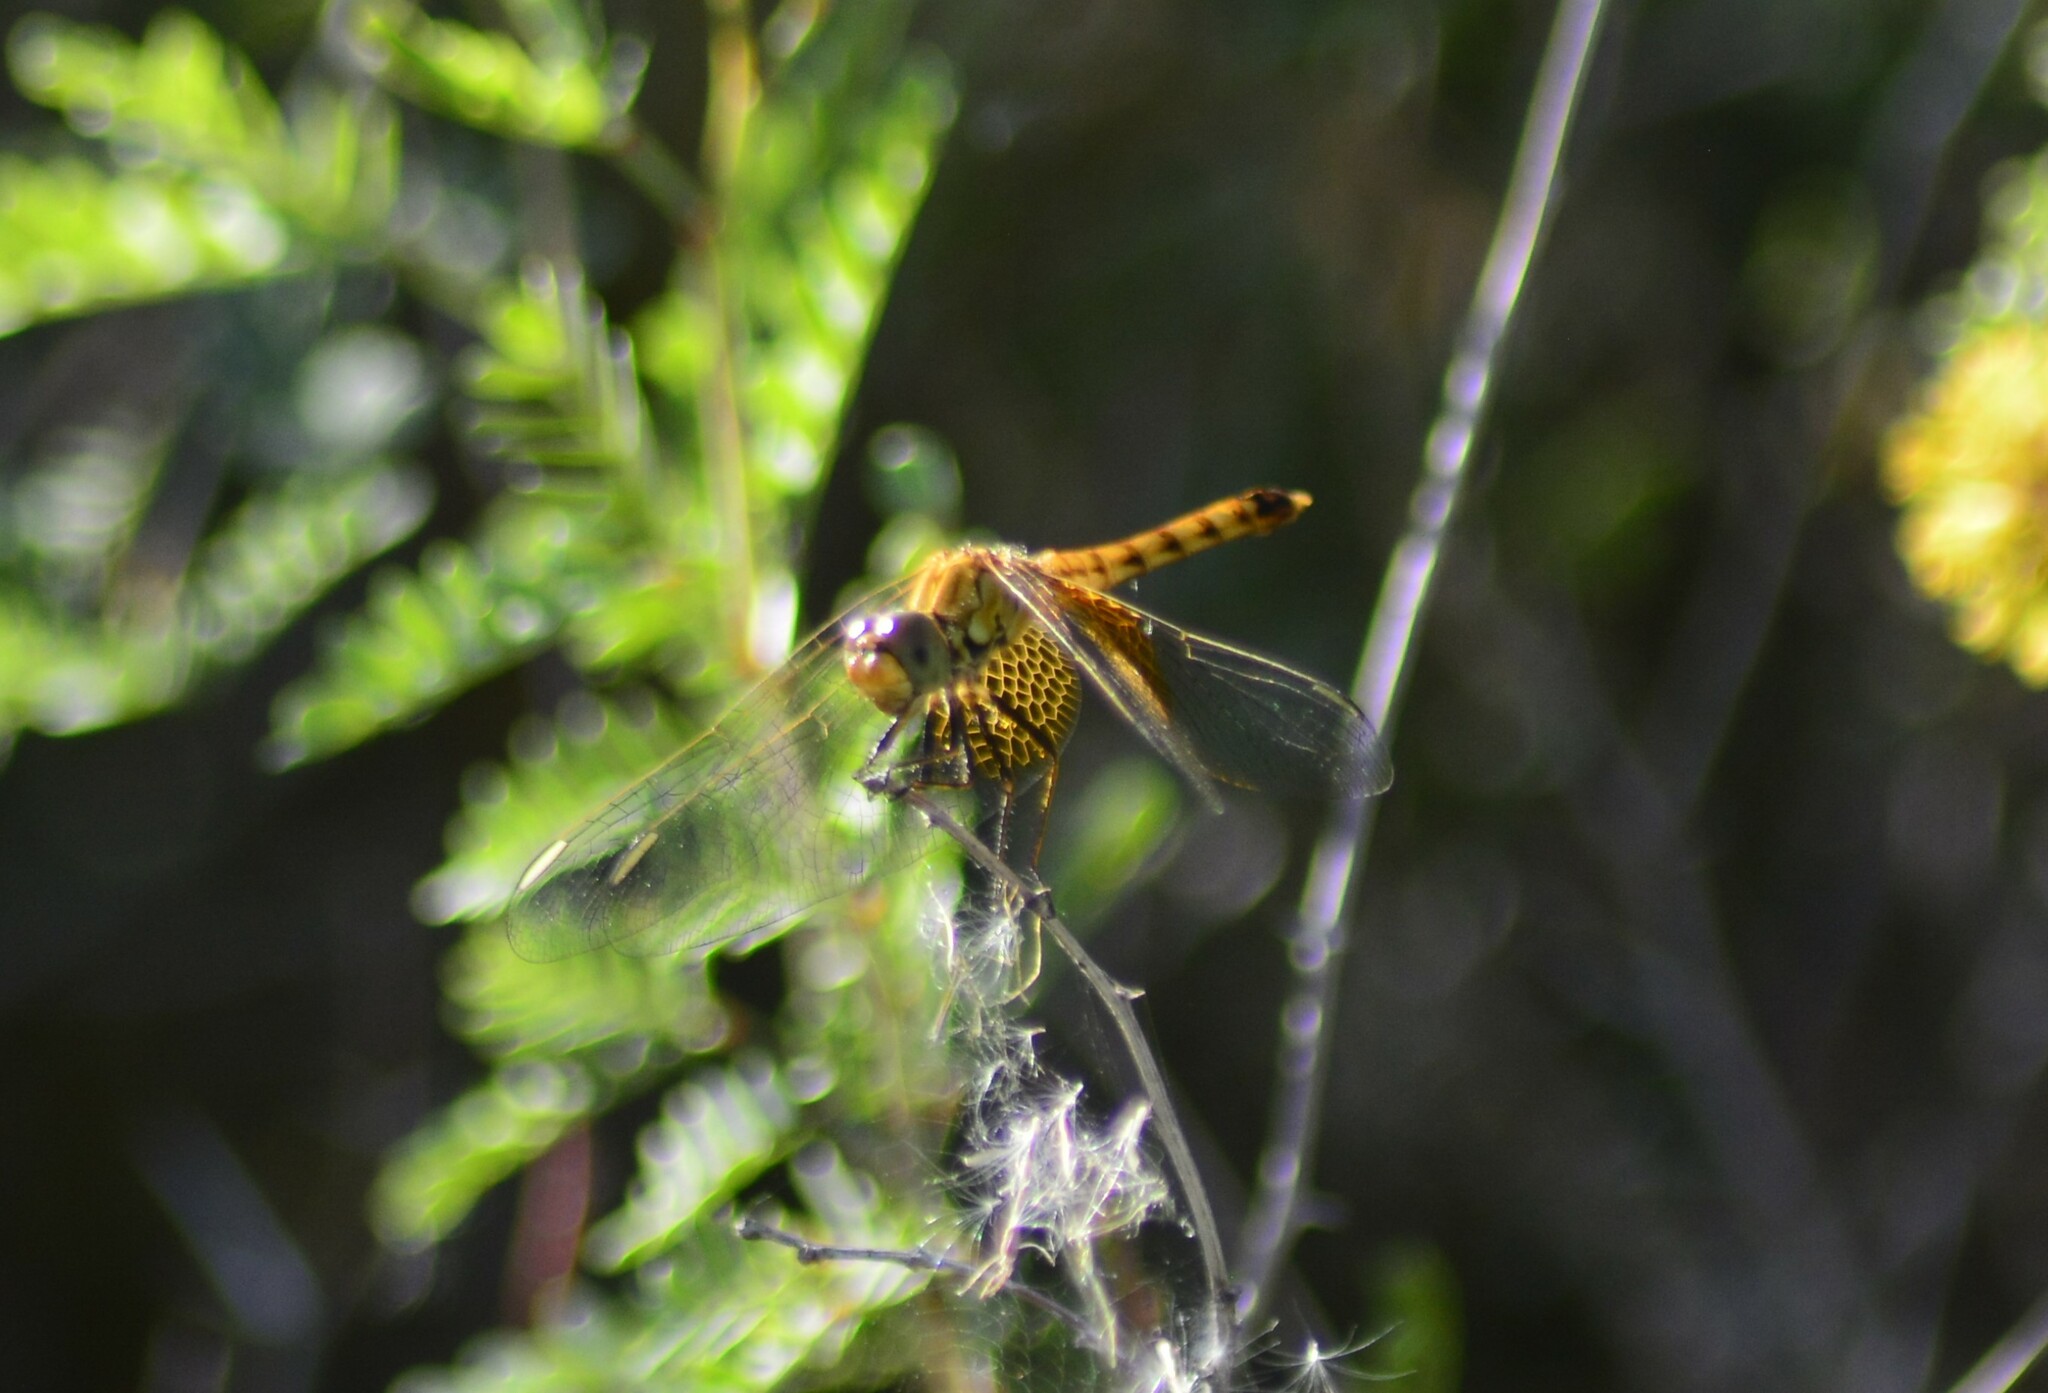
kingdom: Animalia
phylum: Arthropoda
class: Insecta
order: Odonata
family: Libellulidae
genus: Erythrodiplax
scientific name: Erythrodiplax corallina
